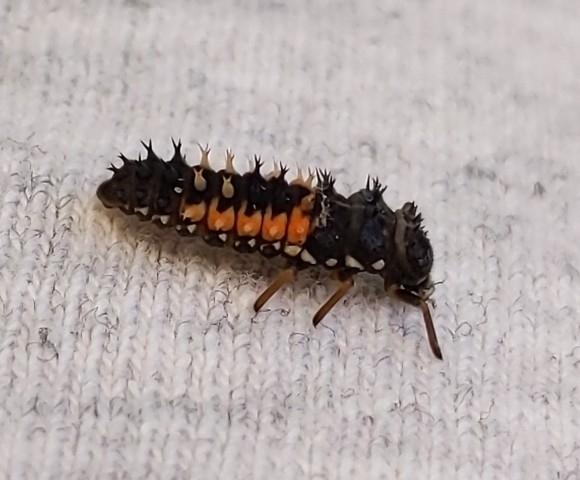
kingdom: Animalia
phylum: Arthropoda
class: Insecta
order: Coleoptera
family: Coccinellidae
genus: Harmonia
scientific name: Harmonia axyridis
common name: Harlequin ladybird
